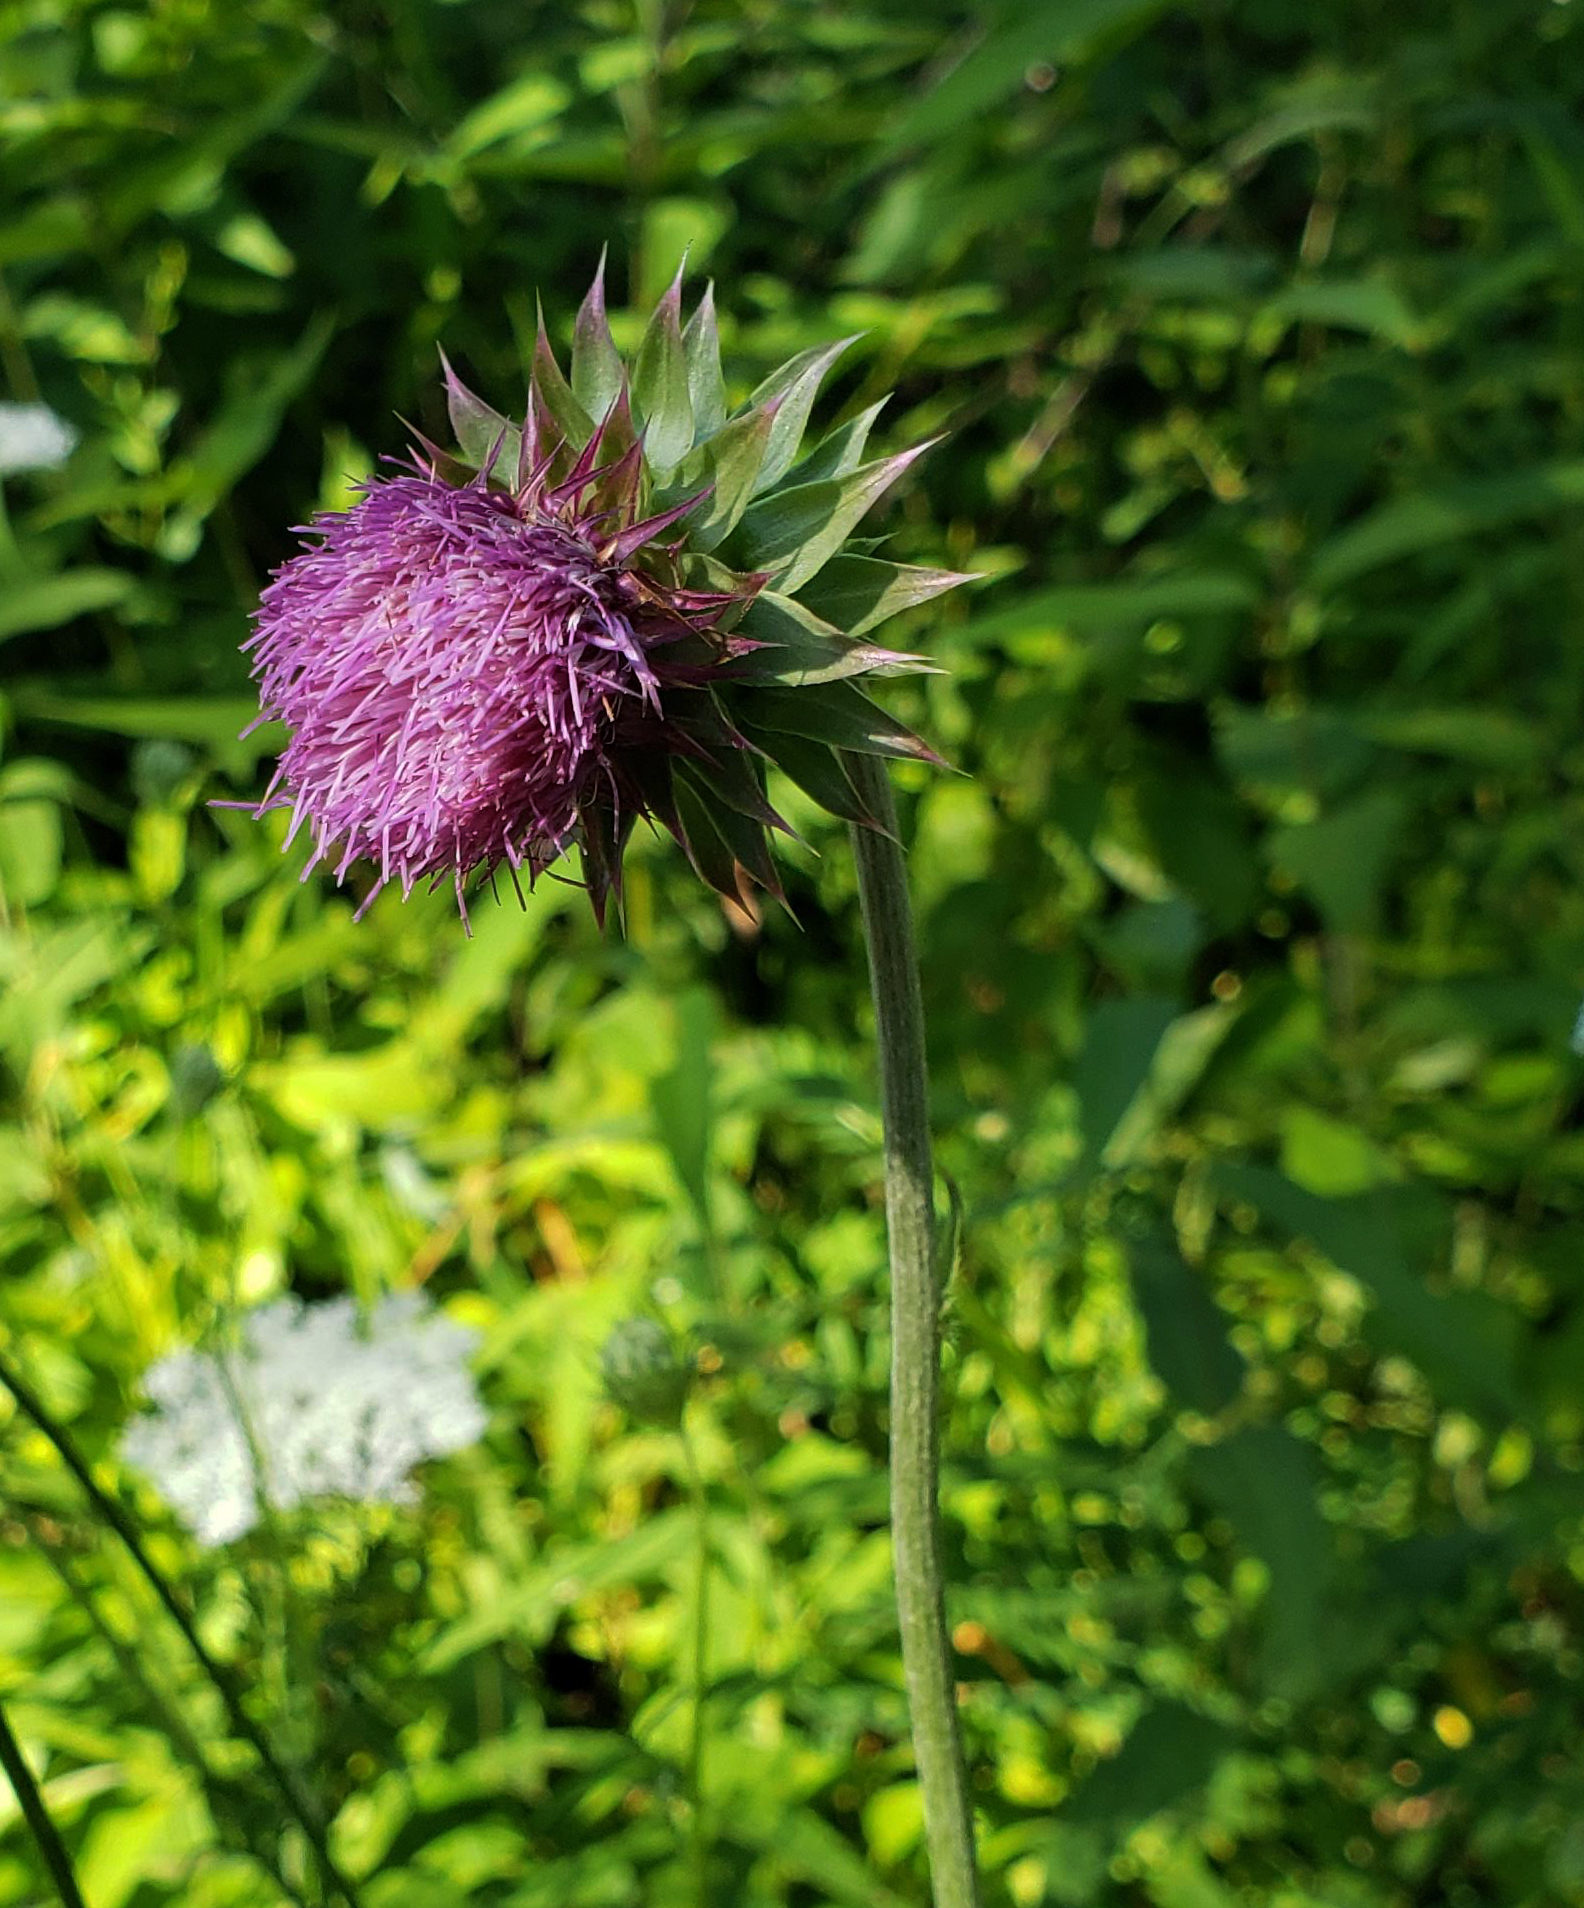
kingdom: Plantae
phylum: Tracheophyta
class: Magnoliopsida
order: Asterales
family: Asteraceae
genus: Carduus
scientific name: Carduus nutans
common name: Musk thistle
